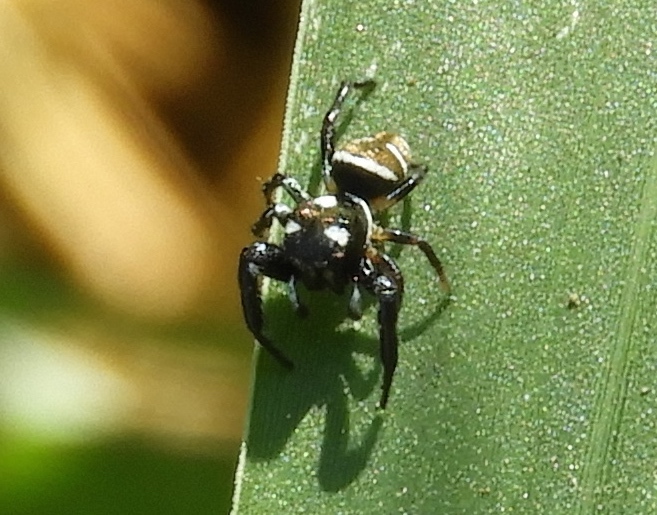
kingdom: Animalia
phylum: Arthropoda
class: Arachnida
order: Araneae
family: Salticidae
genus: Sassacus
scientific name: Sassacus
